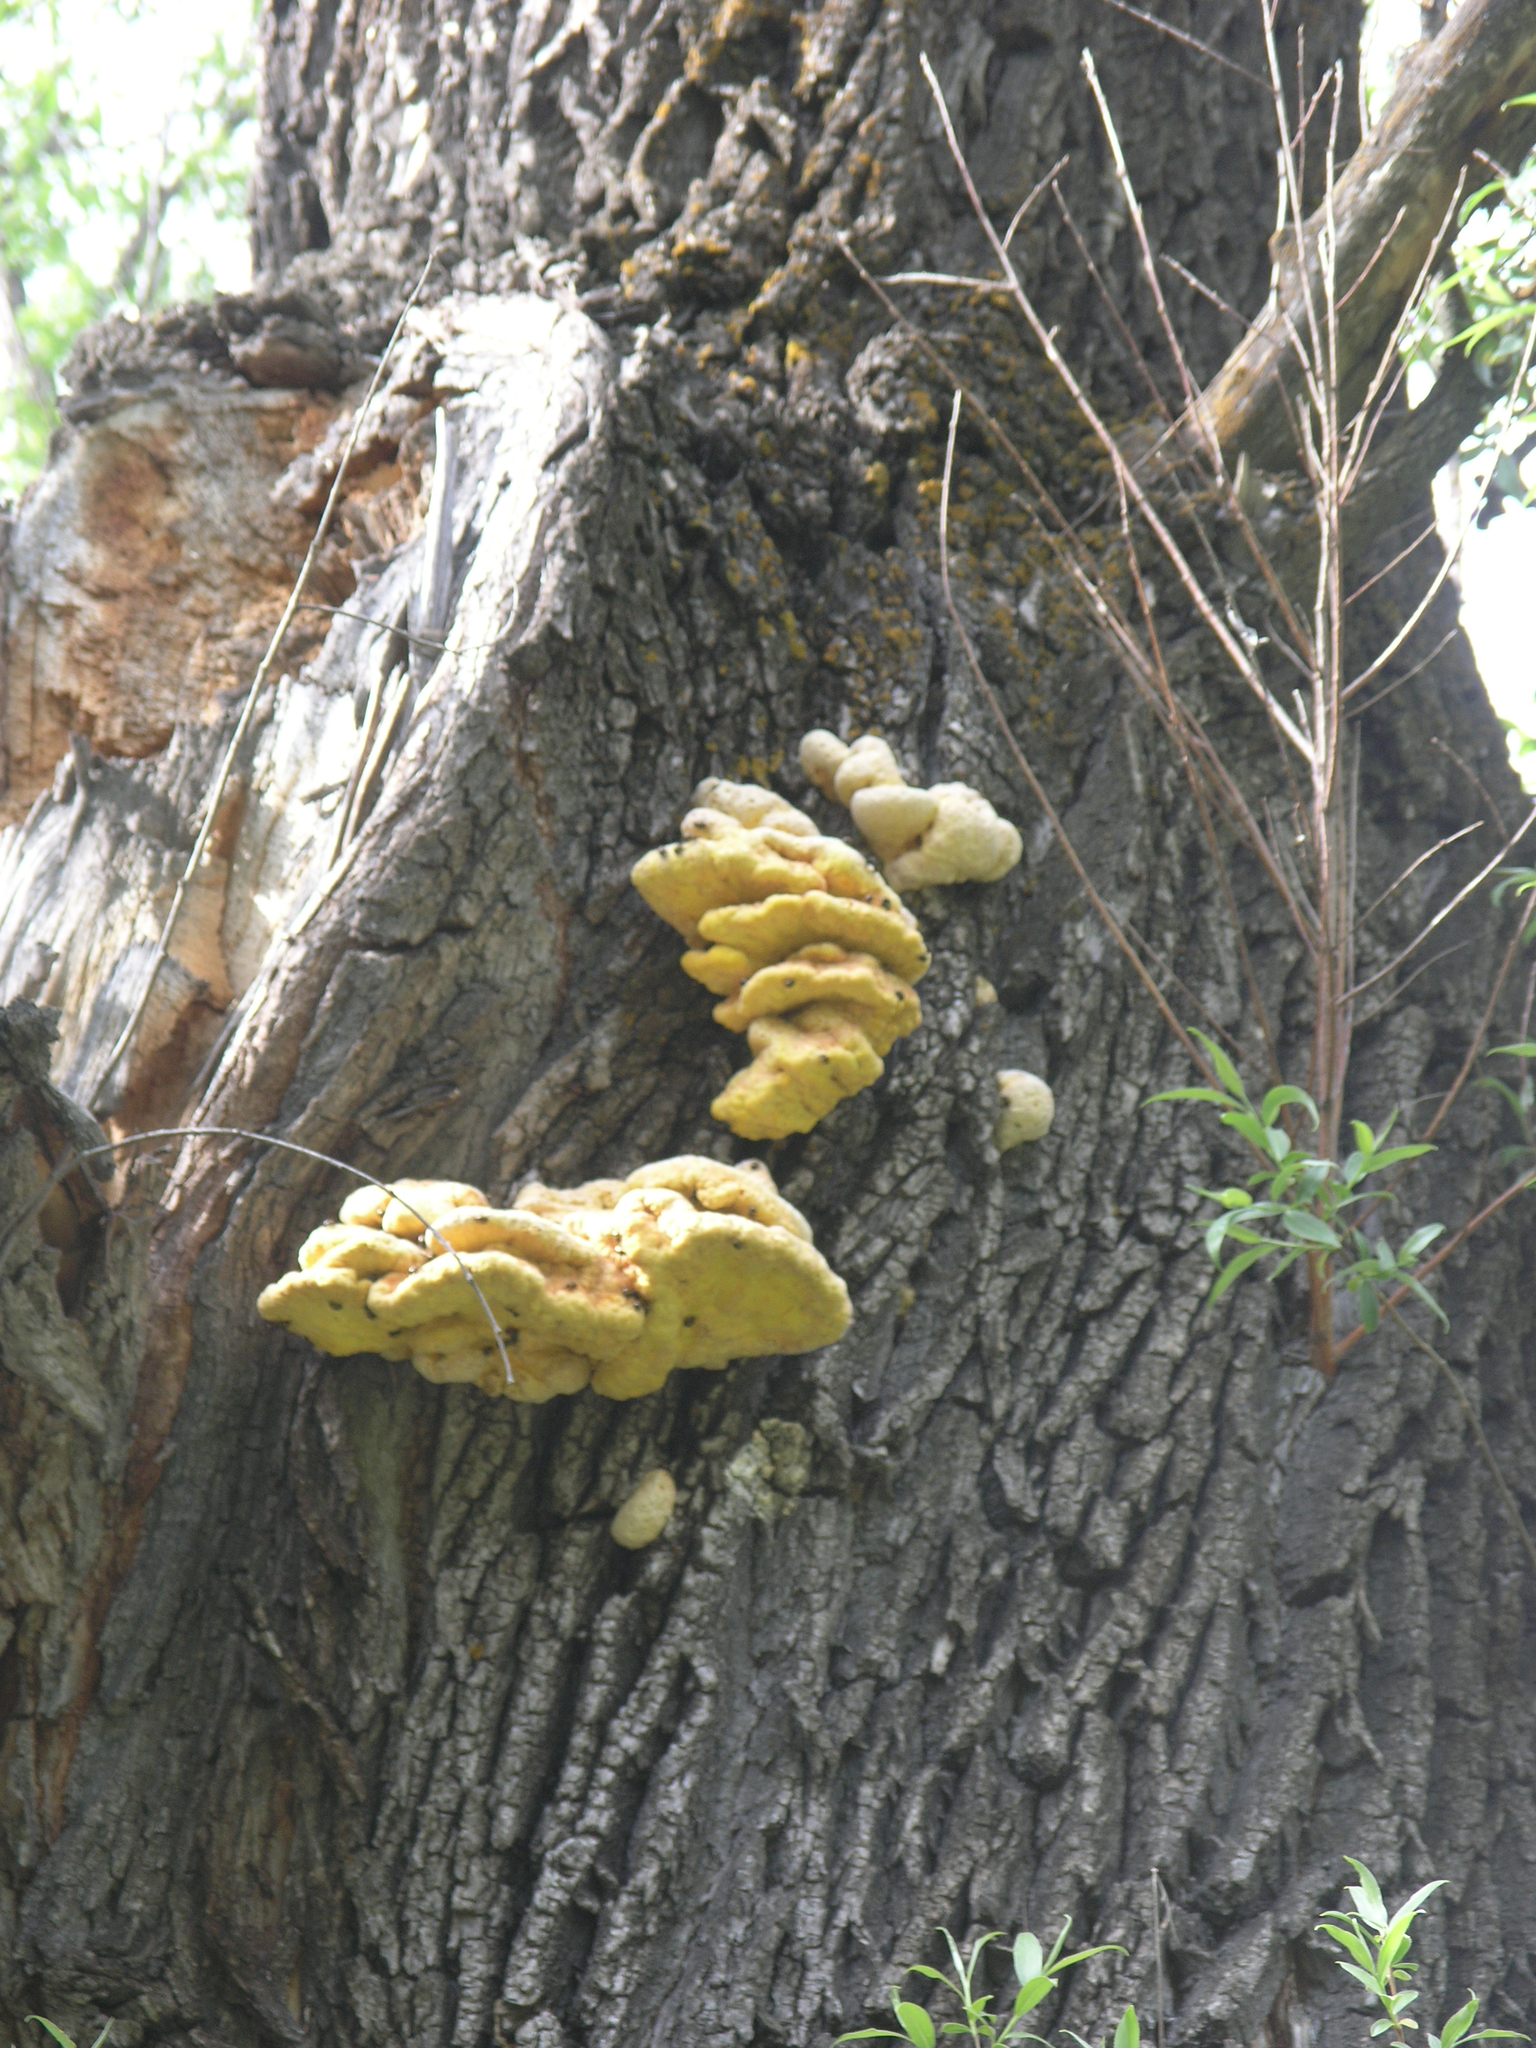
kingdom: Fungi
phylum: Basidiomycota
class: Agaricomycetes
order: Polyporales
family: Laetiporaceae
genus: Laetiporus
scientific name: Laetiporus sulphureus
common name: Chicken of the woods
